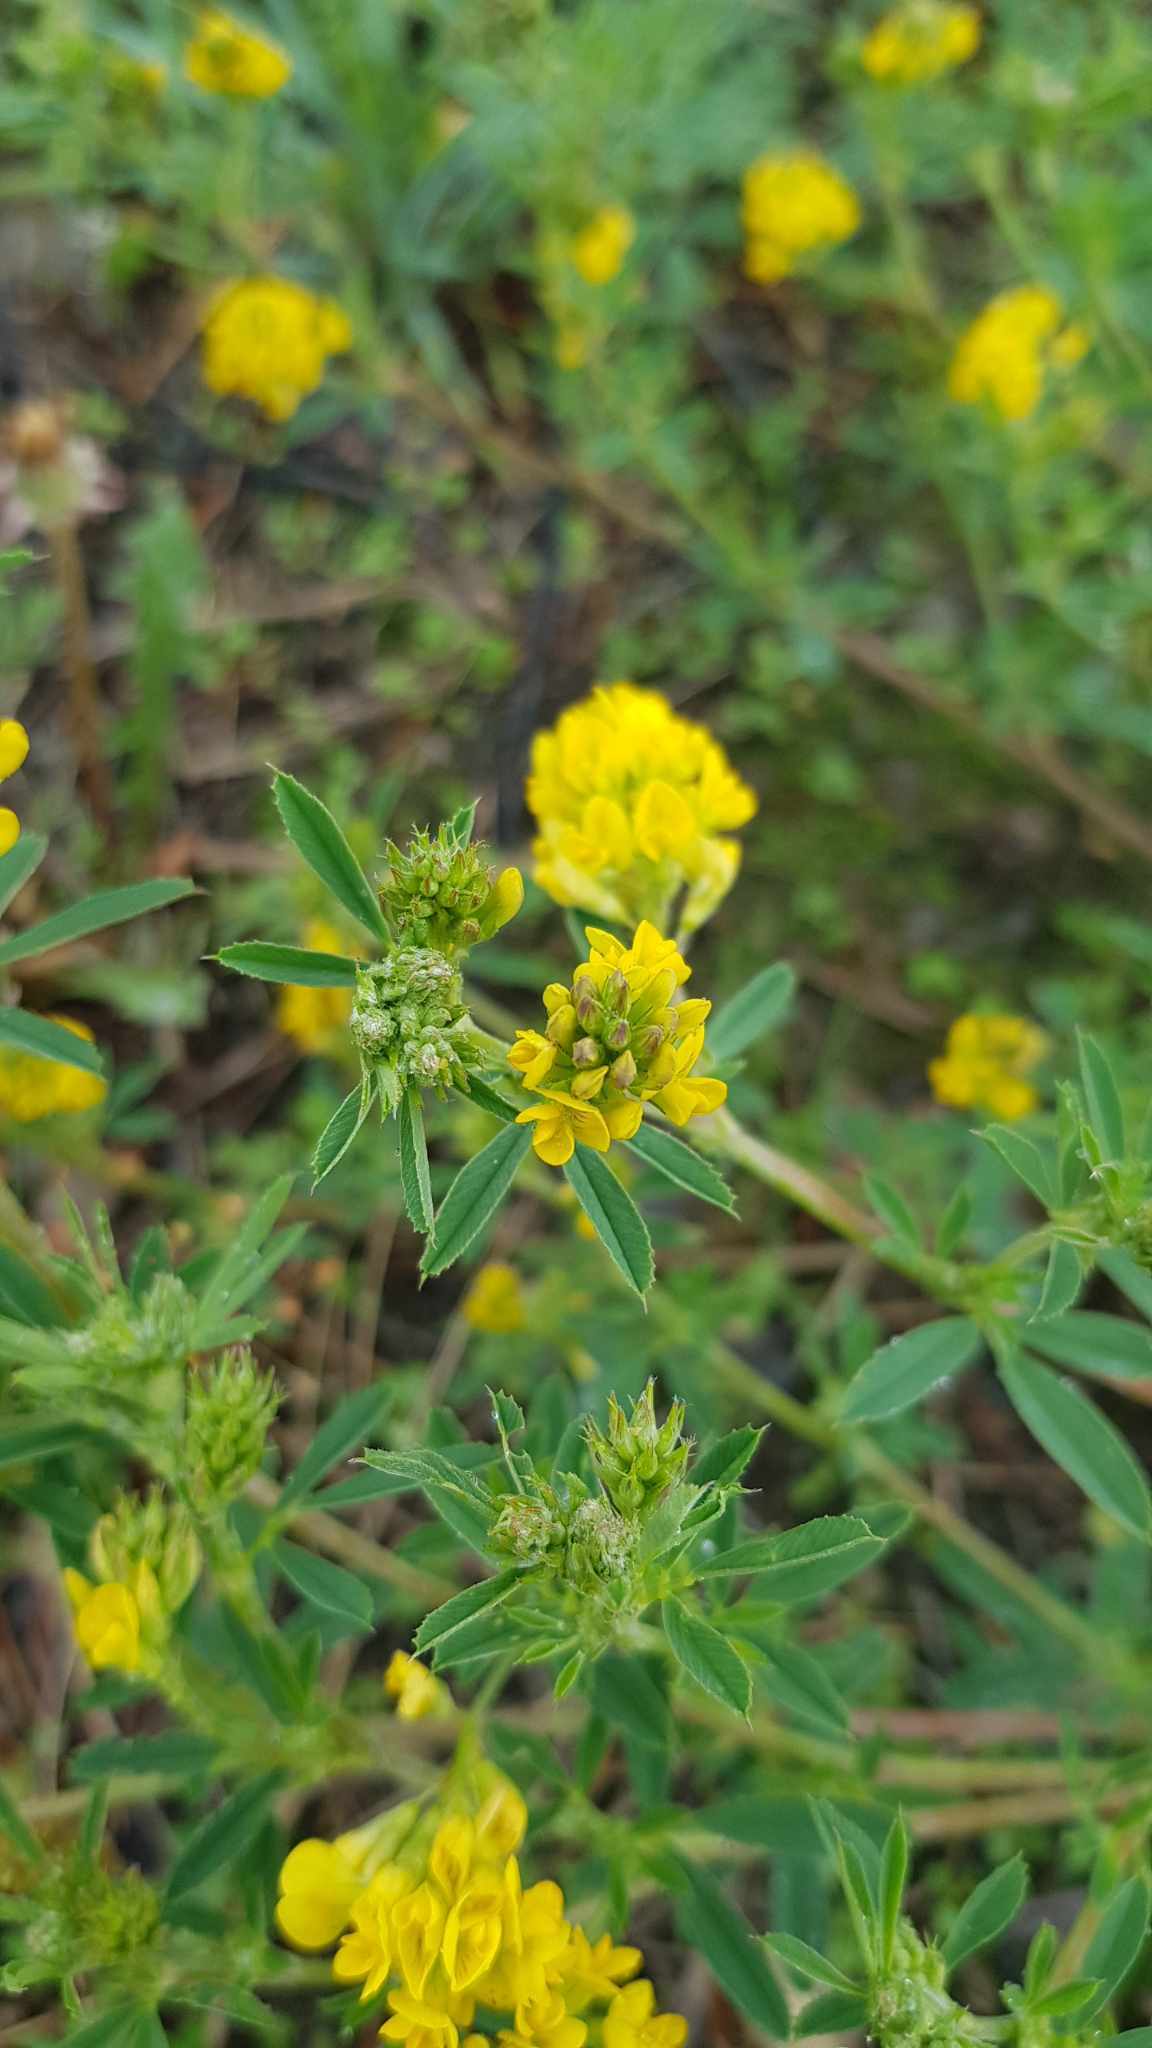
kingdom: Plantae
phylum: Tracheophyta
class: Magnoliopsida
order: Fabales
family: Fabaceae
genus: Medicago
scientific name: Medicago falcata
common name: Sickle medick
